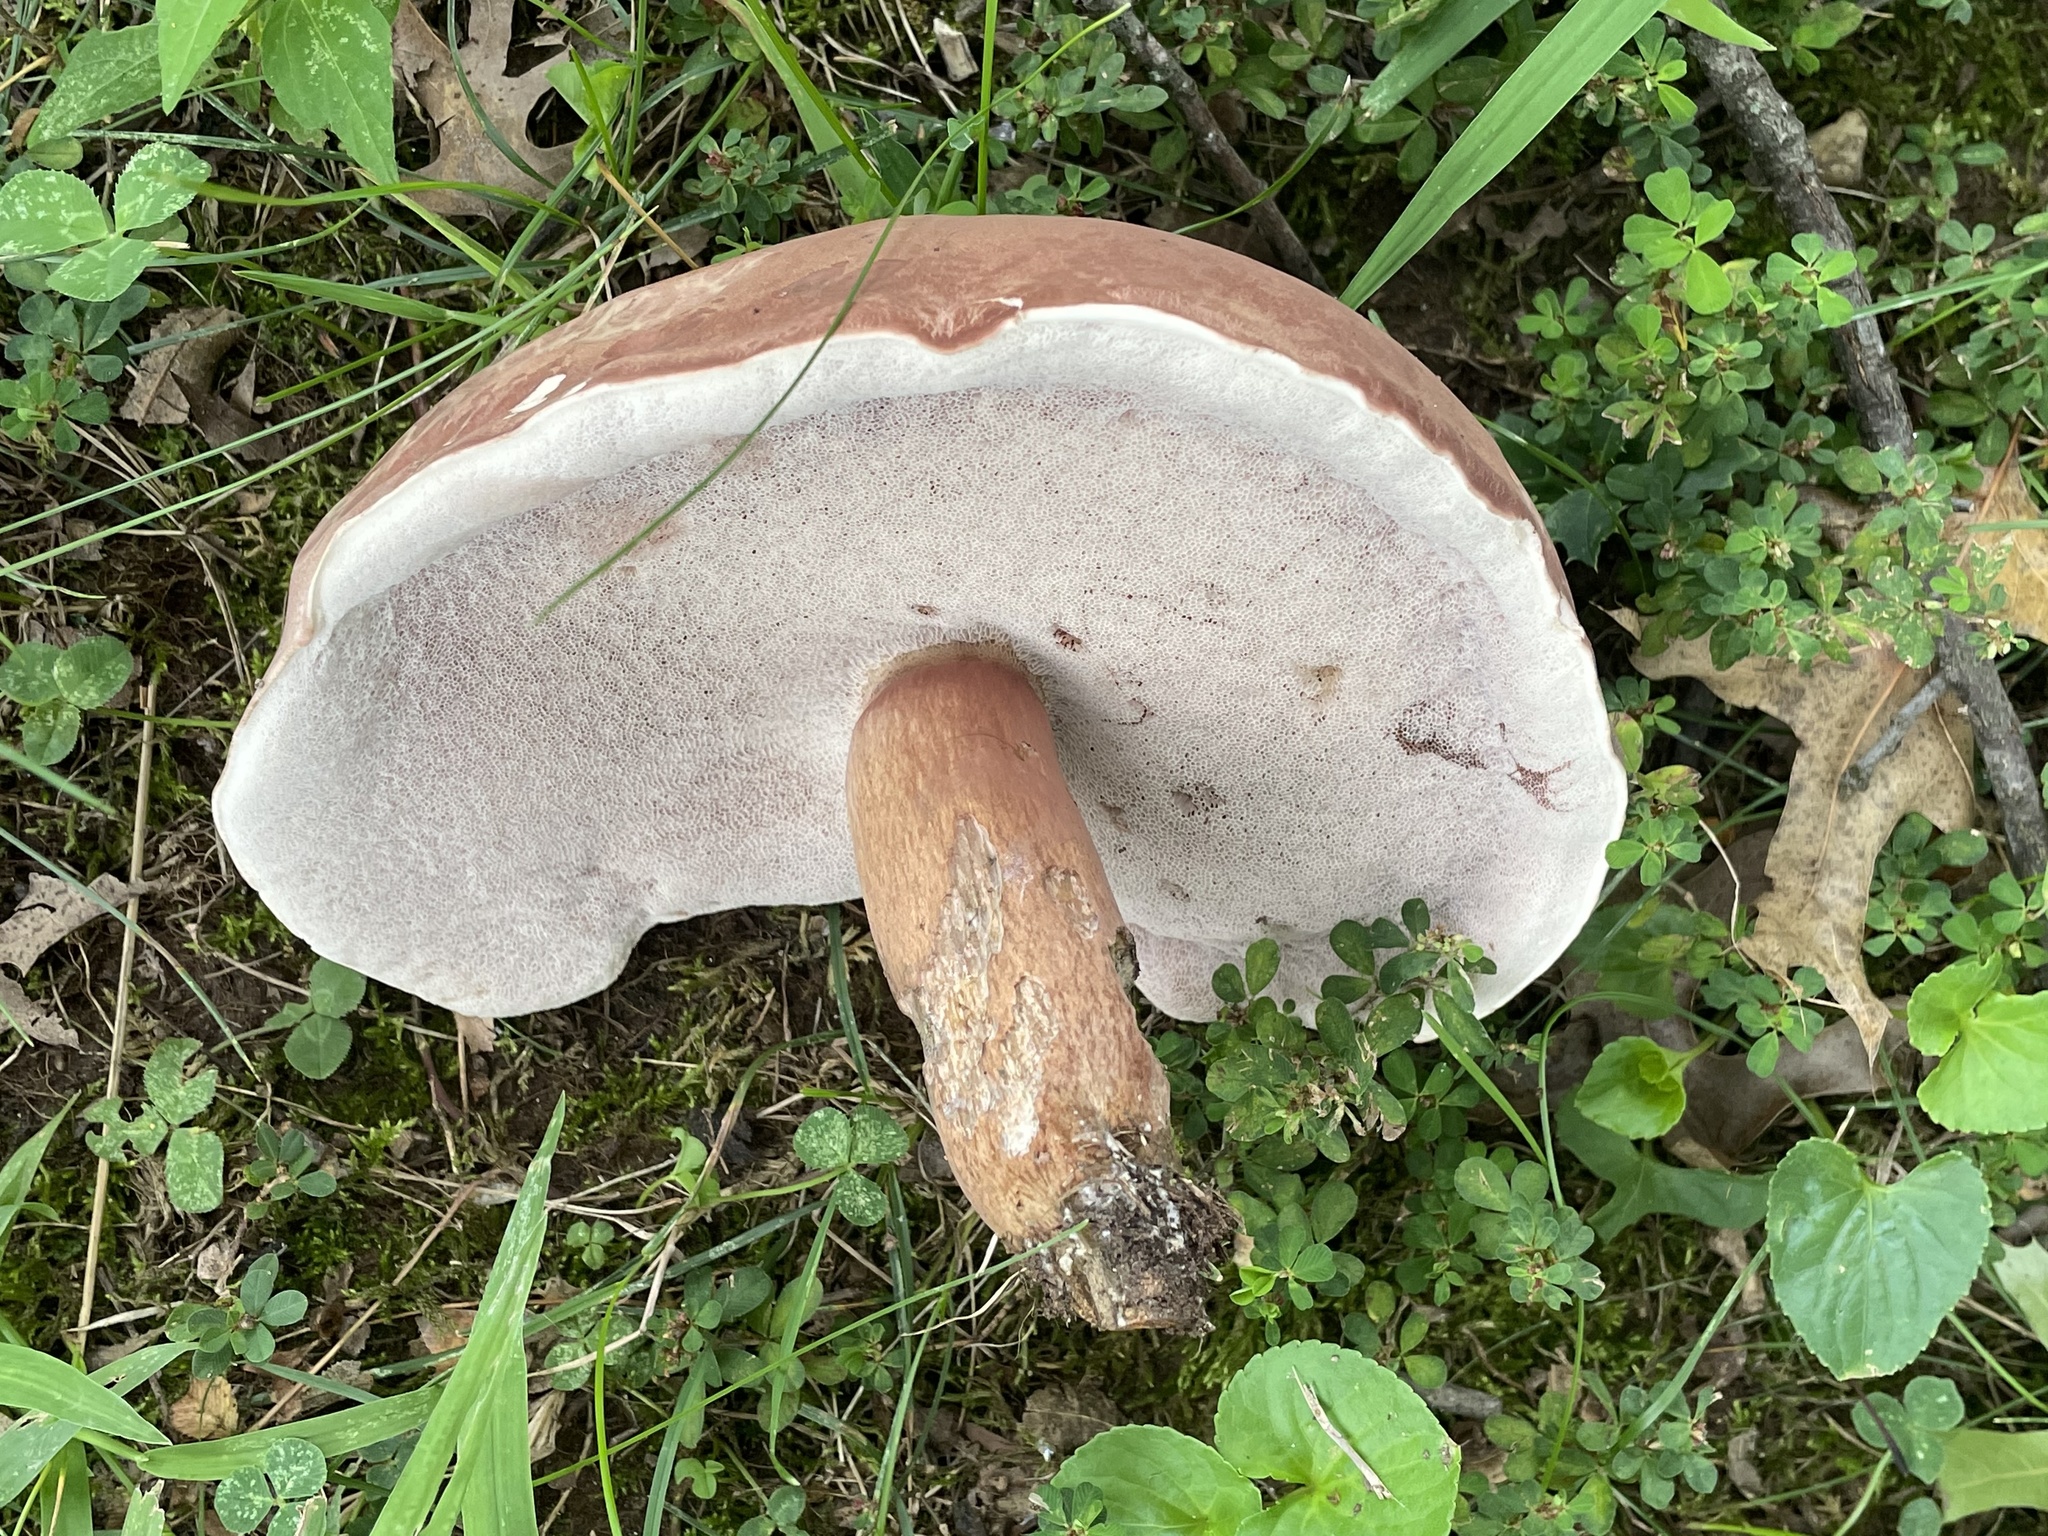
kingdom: Fungi
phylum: Basidiomycota
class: Agaricomycetes
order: Boletales
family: Boletaceae
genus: Tylopilus
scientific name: Tylopilus rubrobrunneus
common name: Reddish brown bitter bolete
